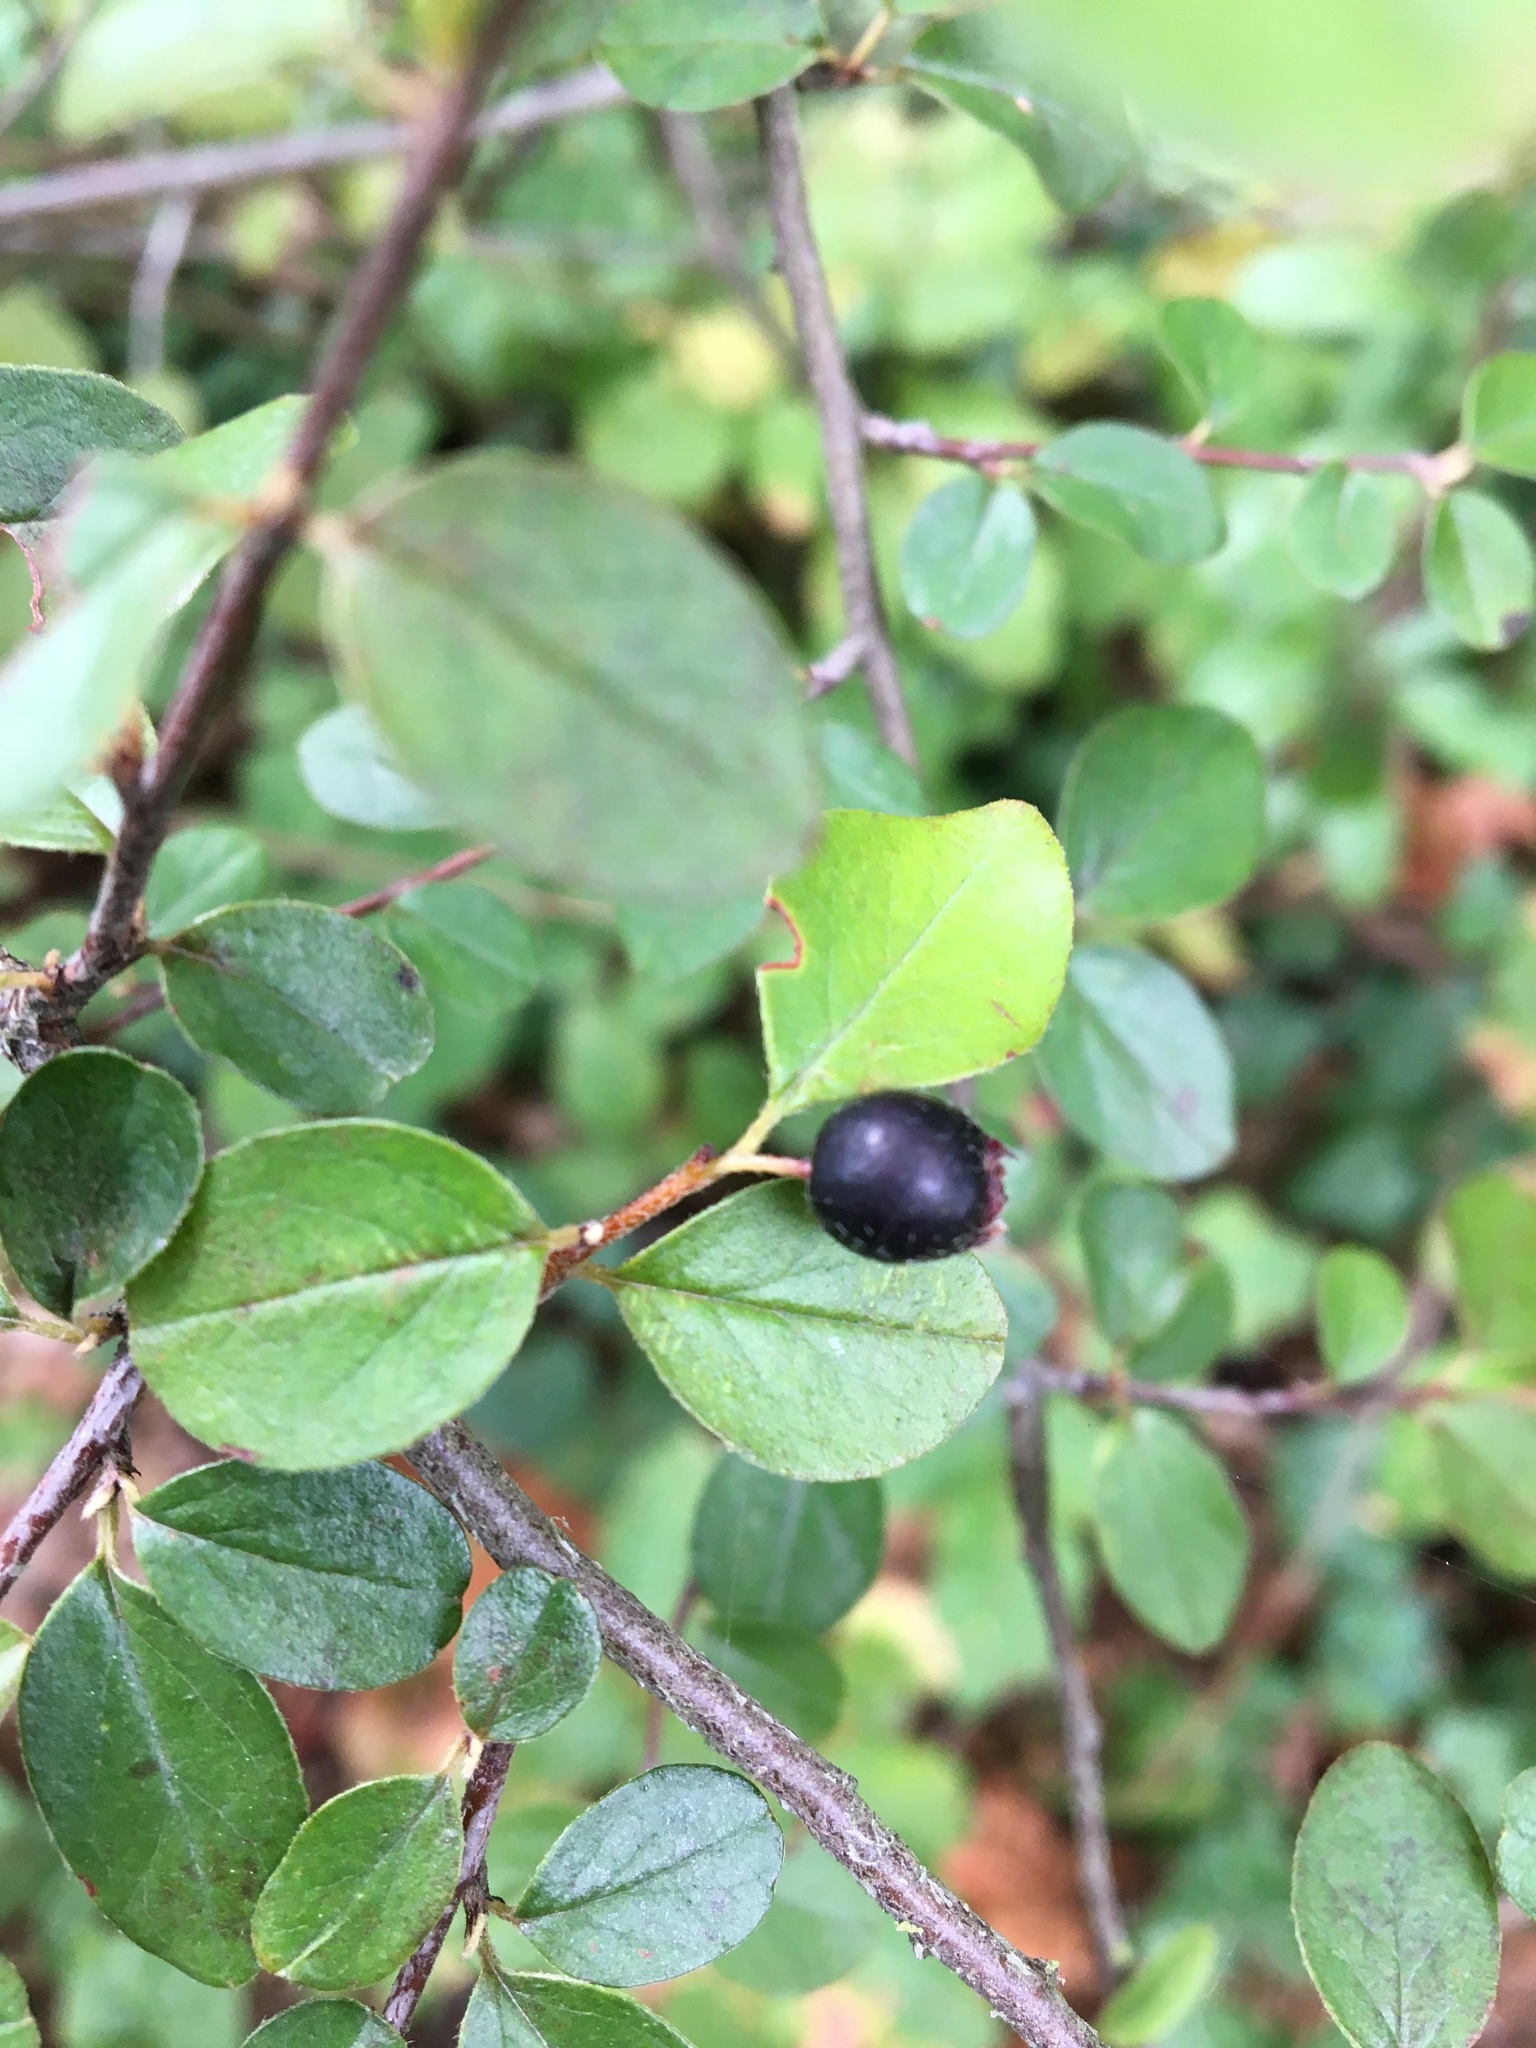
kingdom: Plantae
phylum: Tracheophyta
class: Magnoliopsida
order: Rosales
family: Rosaceae
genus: Cotoneaster
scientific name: Cotoneaster nitens
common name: Few-flowered cotoneaster
